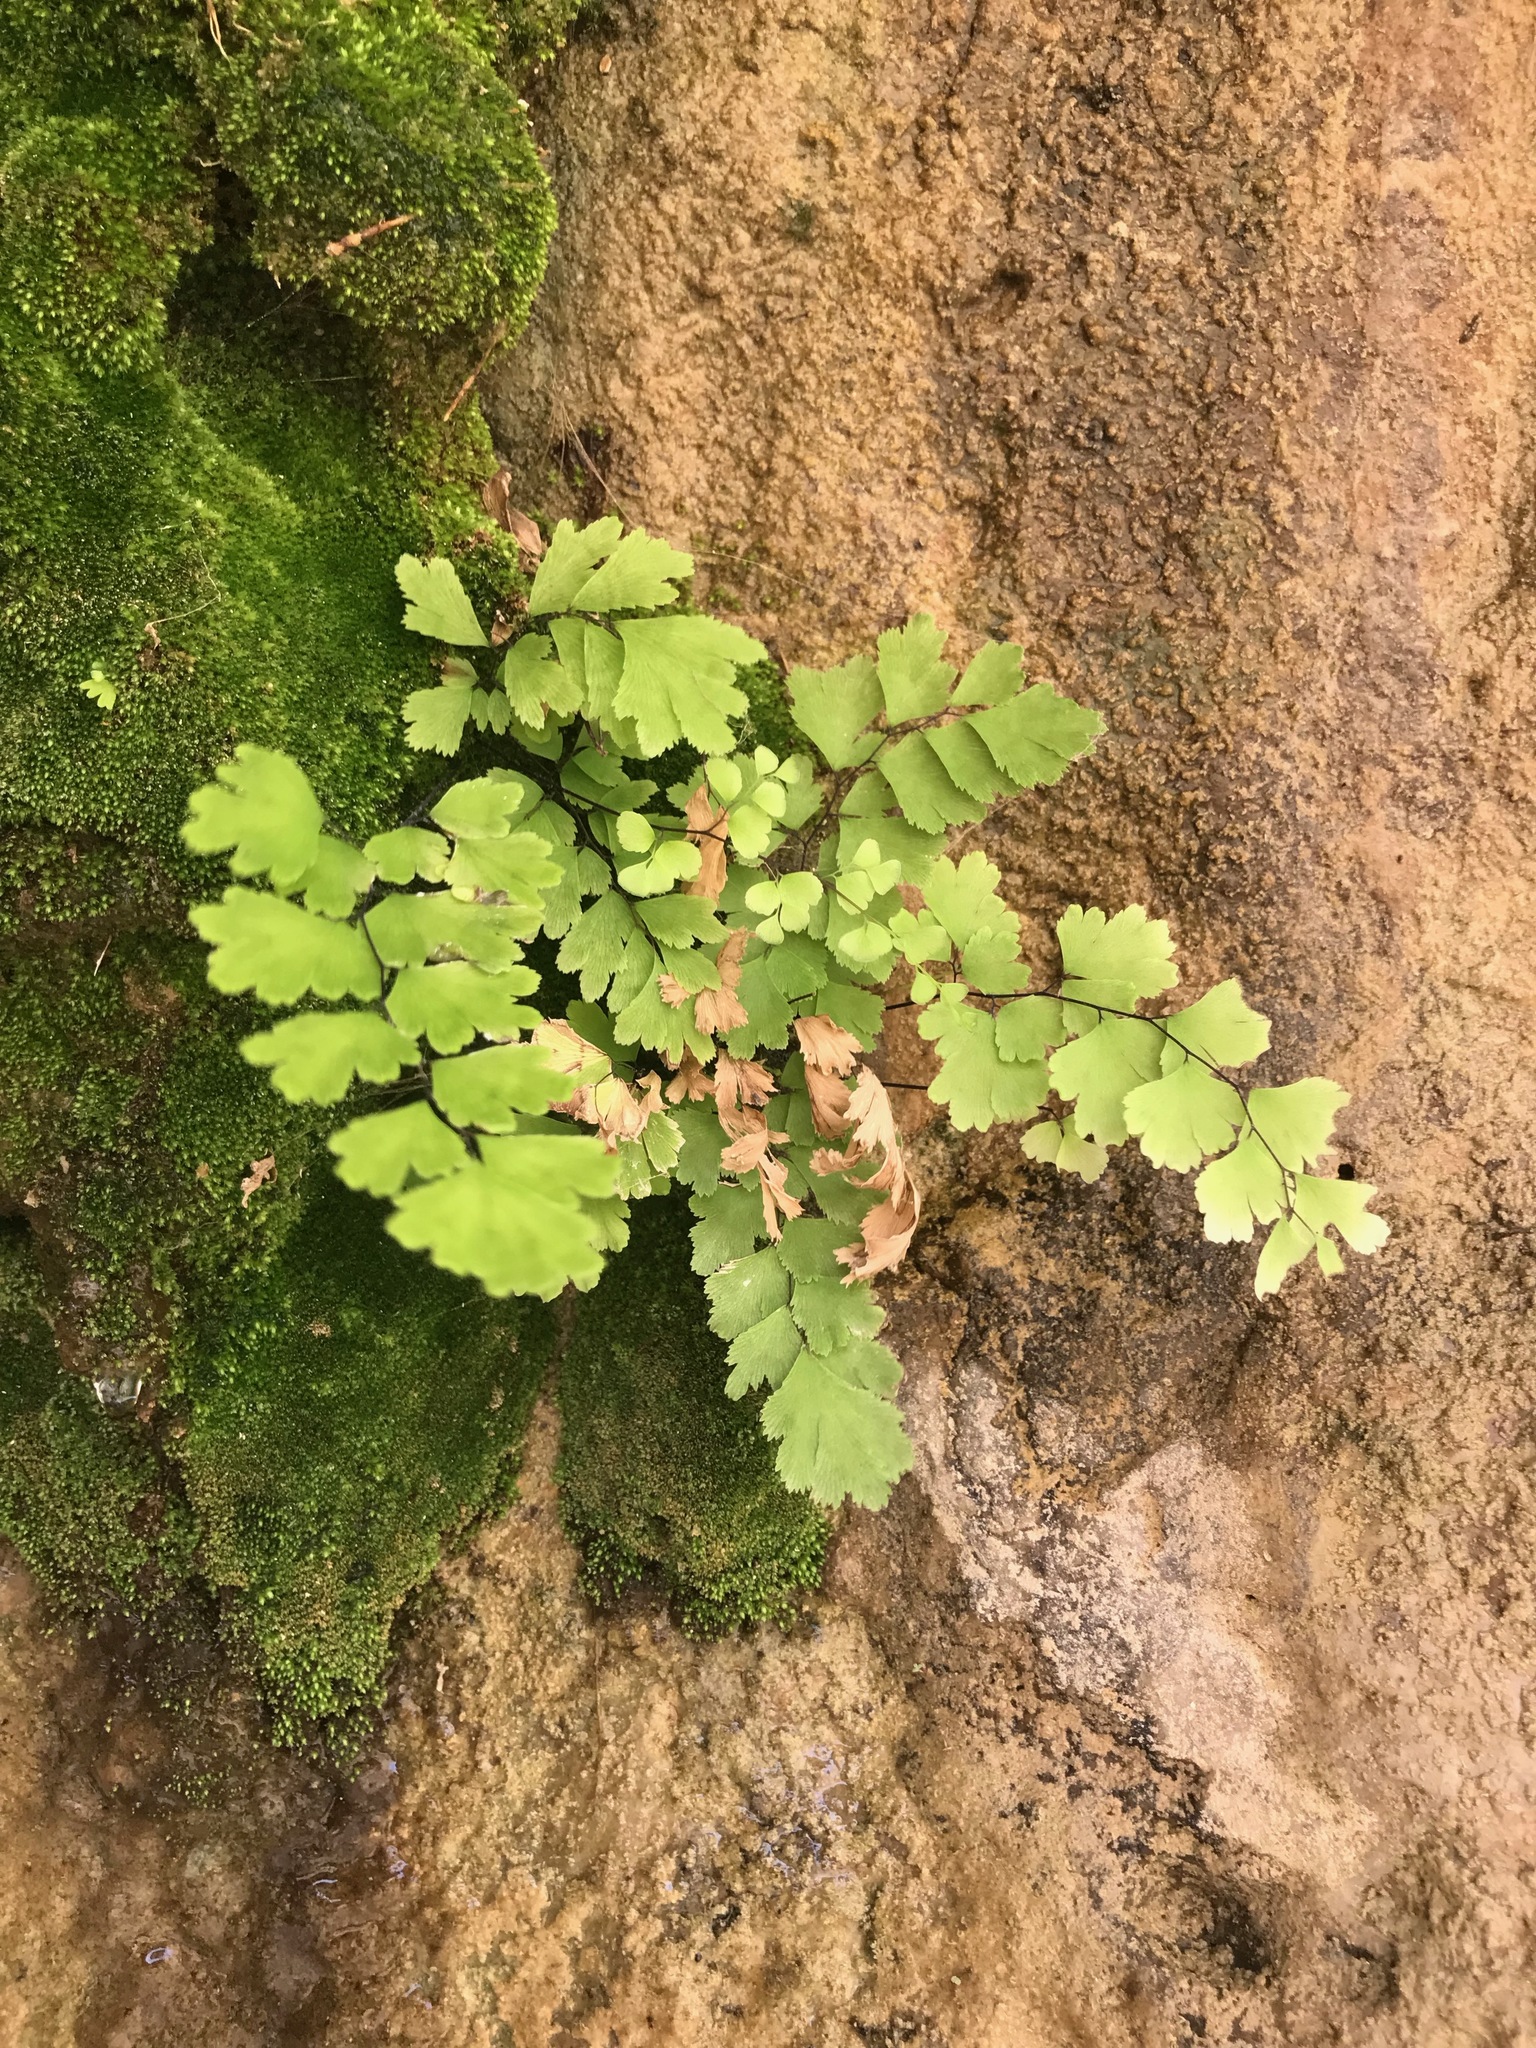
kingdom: Plantae
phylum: Tracheophyta
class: Polypodiopsida
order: Polypodiales
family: Pteridaceae
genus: Adiantum
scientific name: Adiantum capillus-veneris
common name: Maidenhair fern
